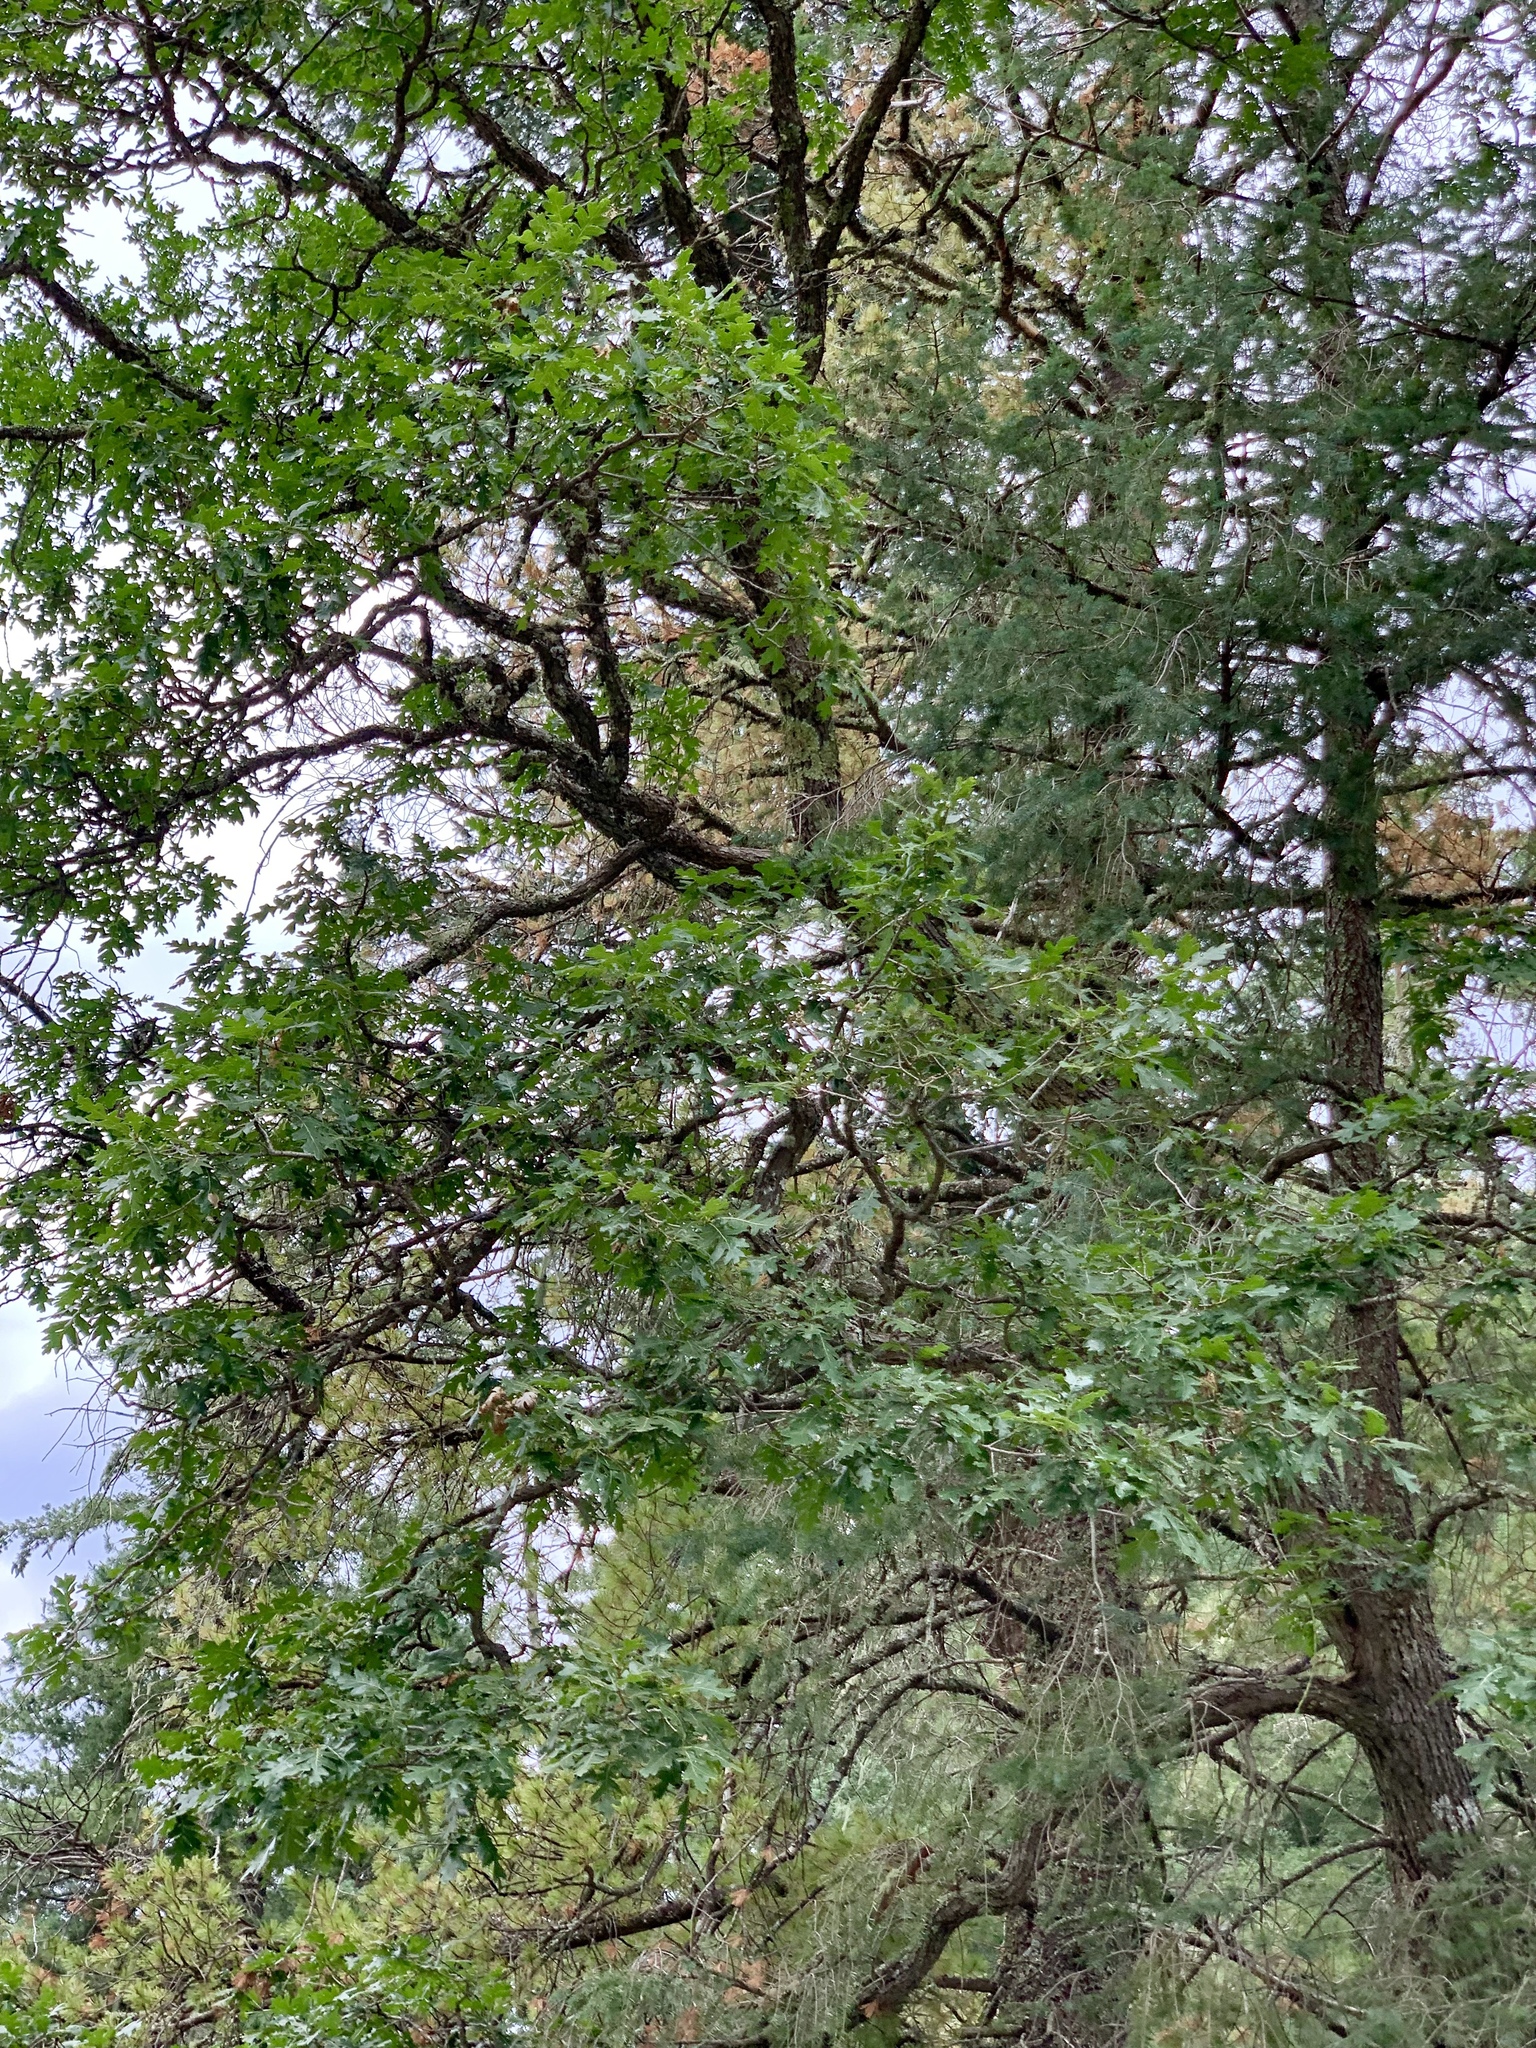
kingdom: Plantae
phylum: Tracheophyta
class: Magnoliopsida
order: Fagales
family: Fagaceae
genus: Quercus
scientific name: Quercus gambelii
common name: Gambel oak
